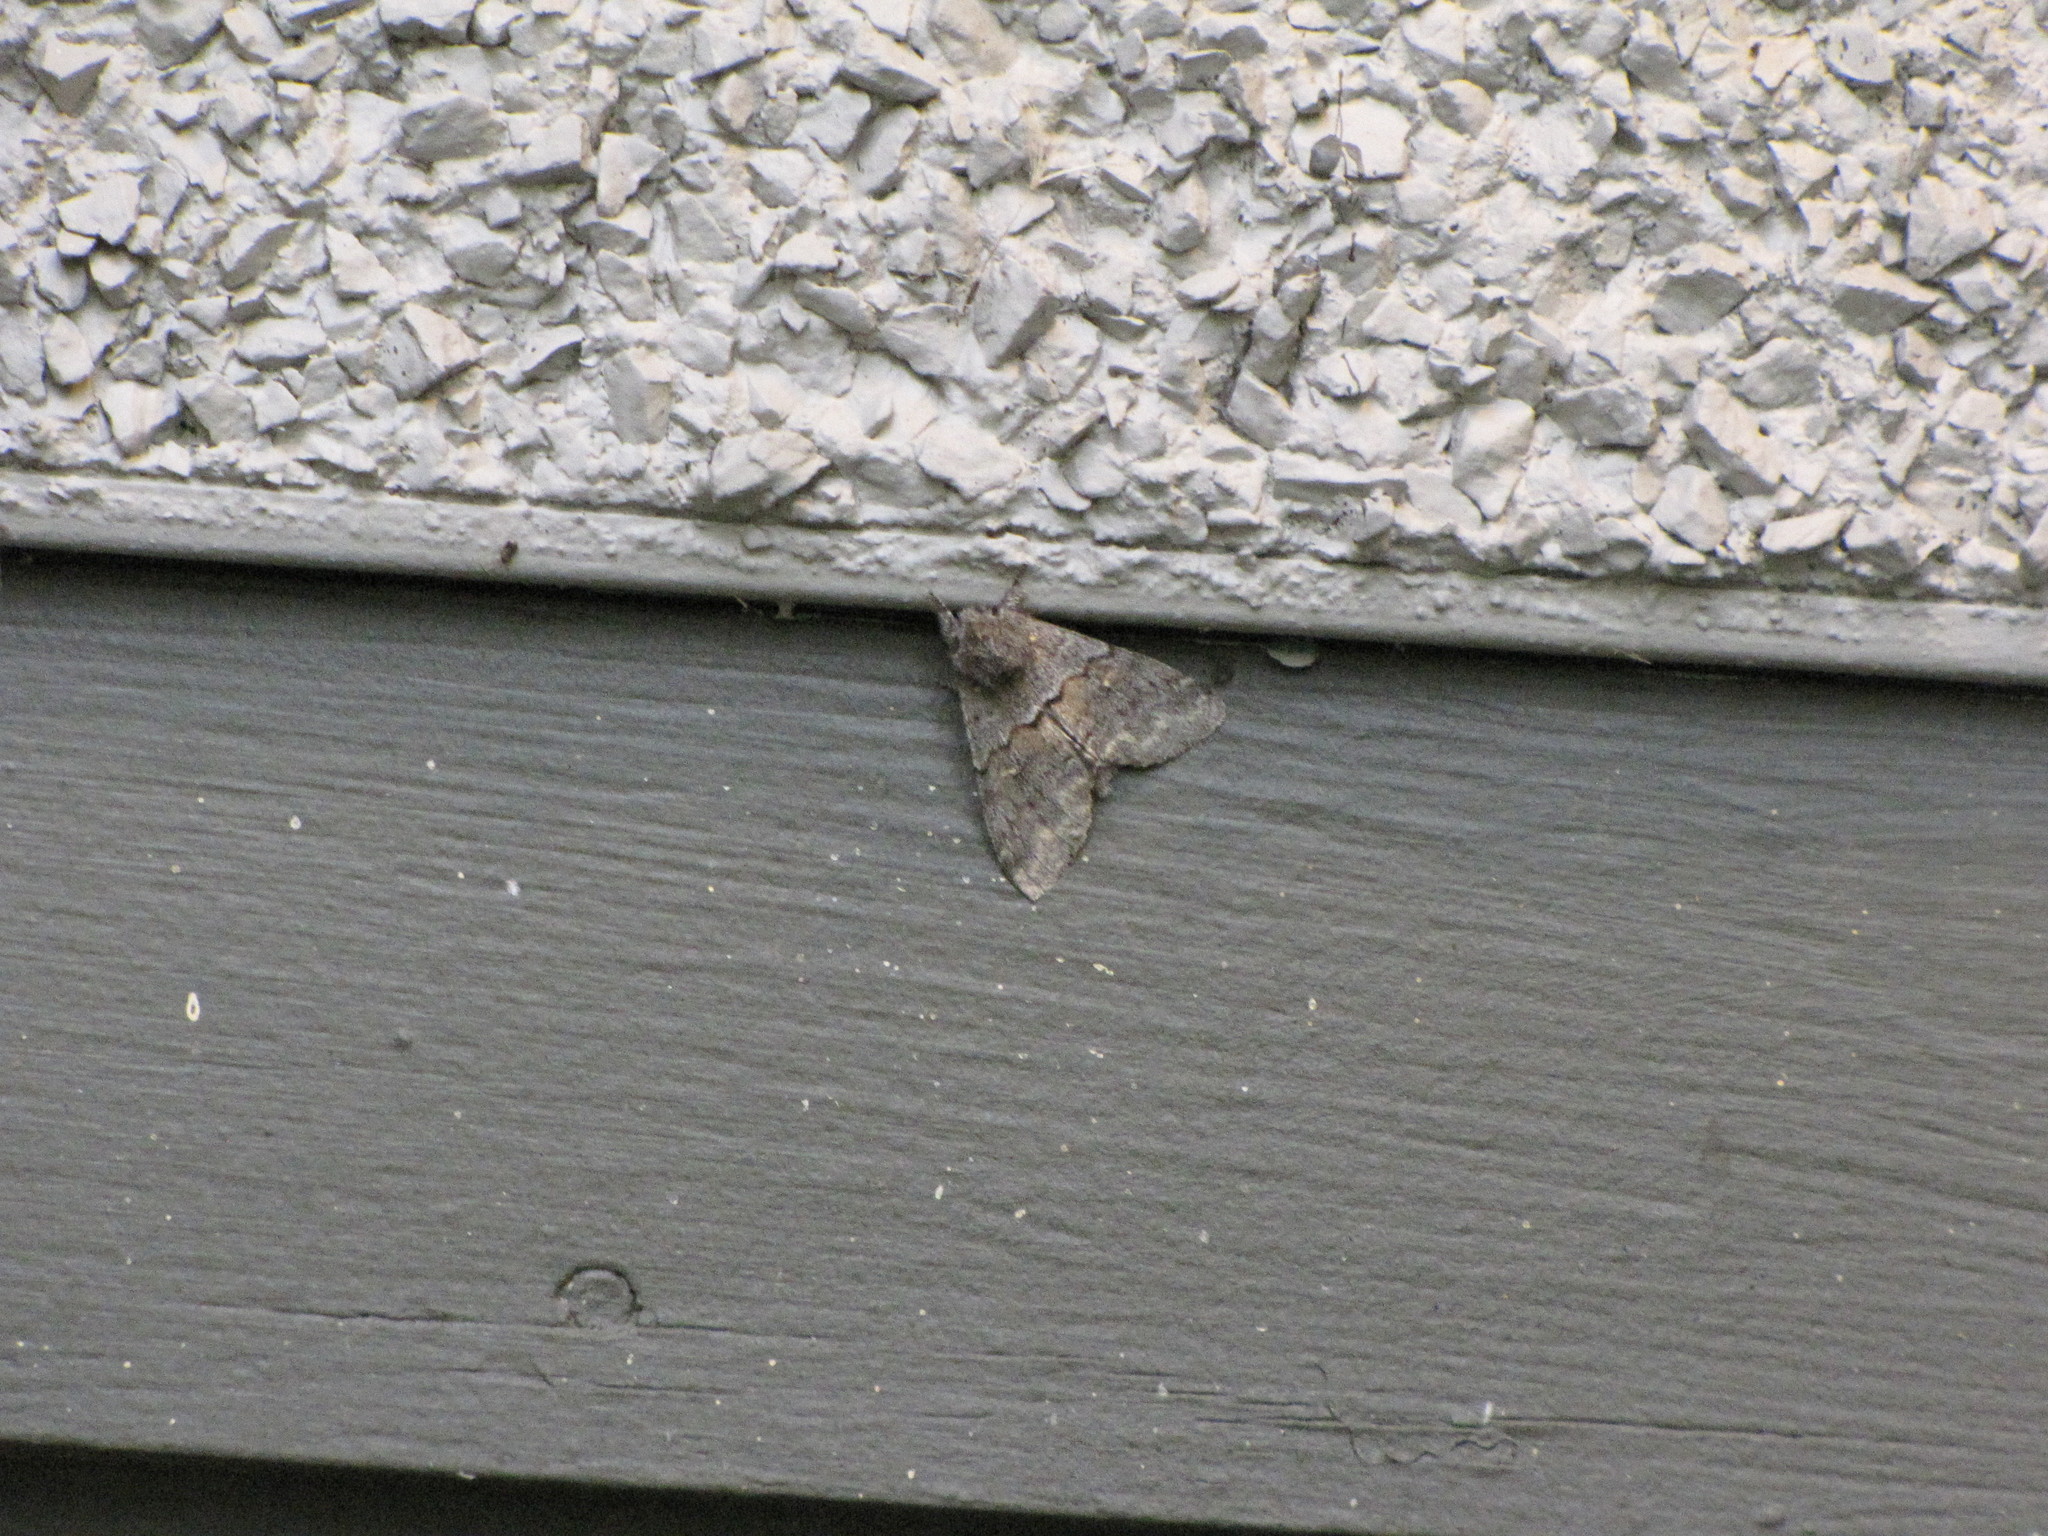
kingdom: Animalia
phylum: Arthropoda
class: Insecta
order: Lepidoptera
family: Notodontidae
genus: Gluphisia
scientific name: Gluphisia severa
